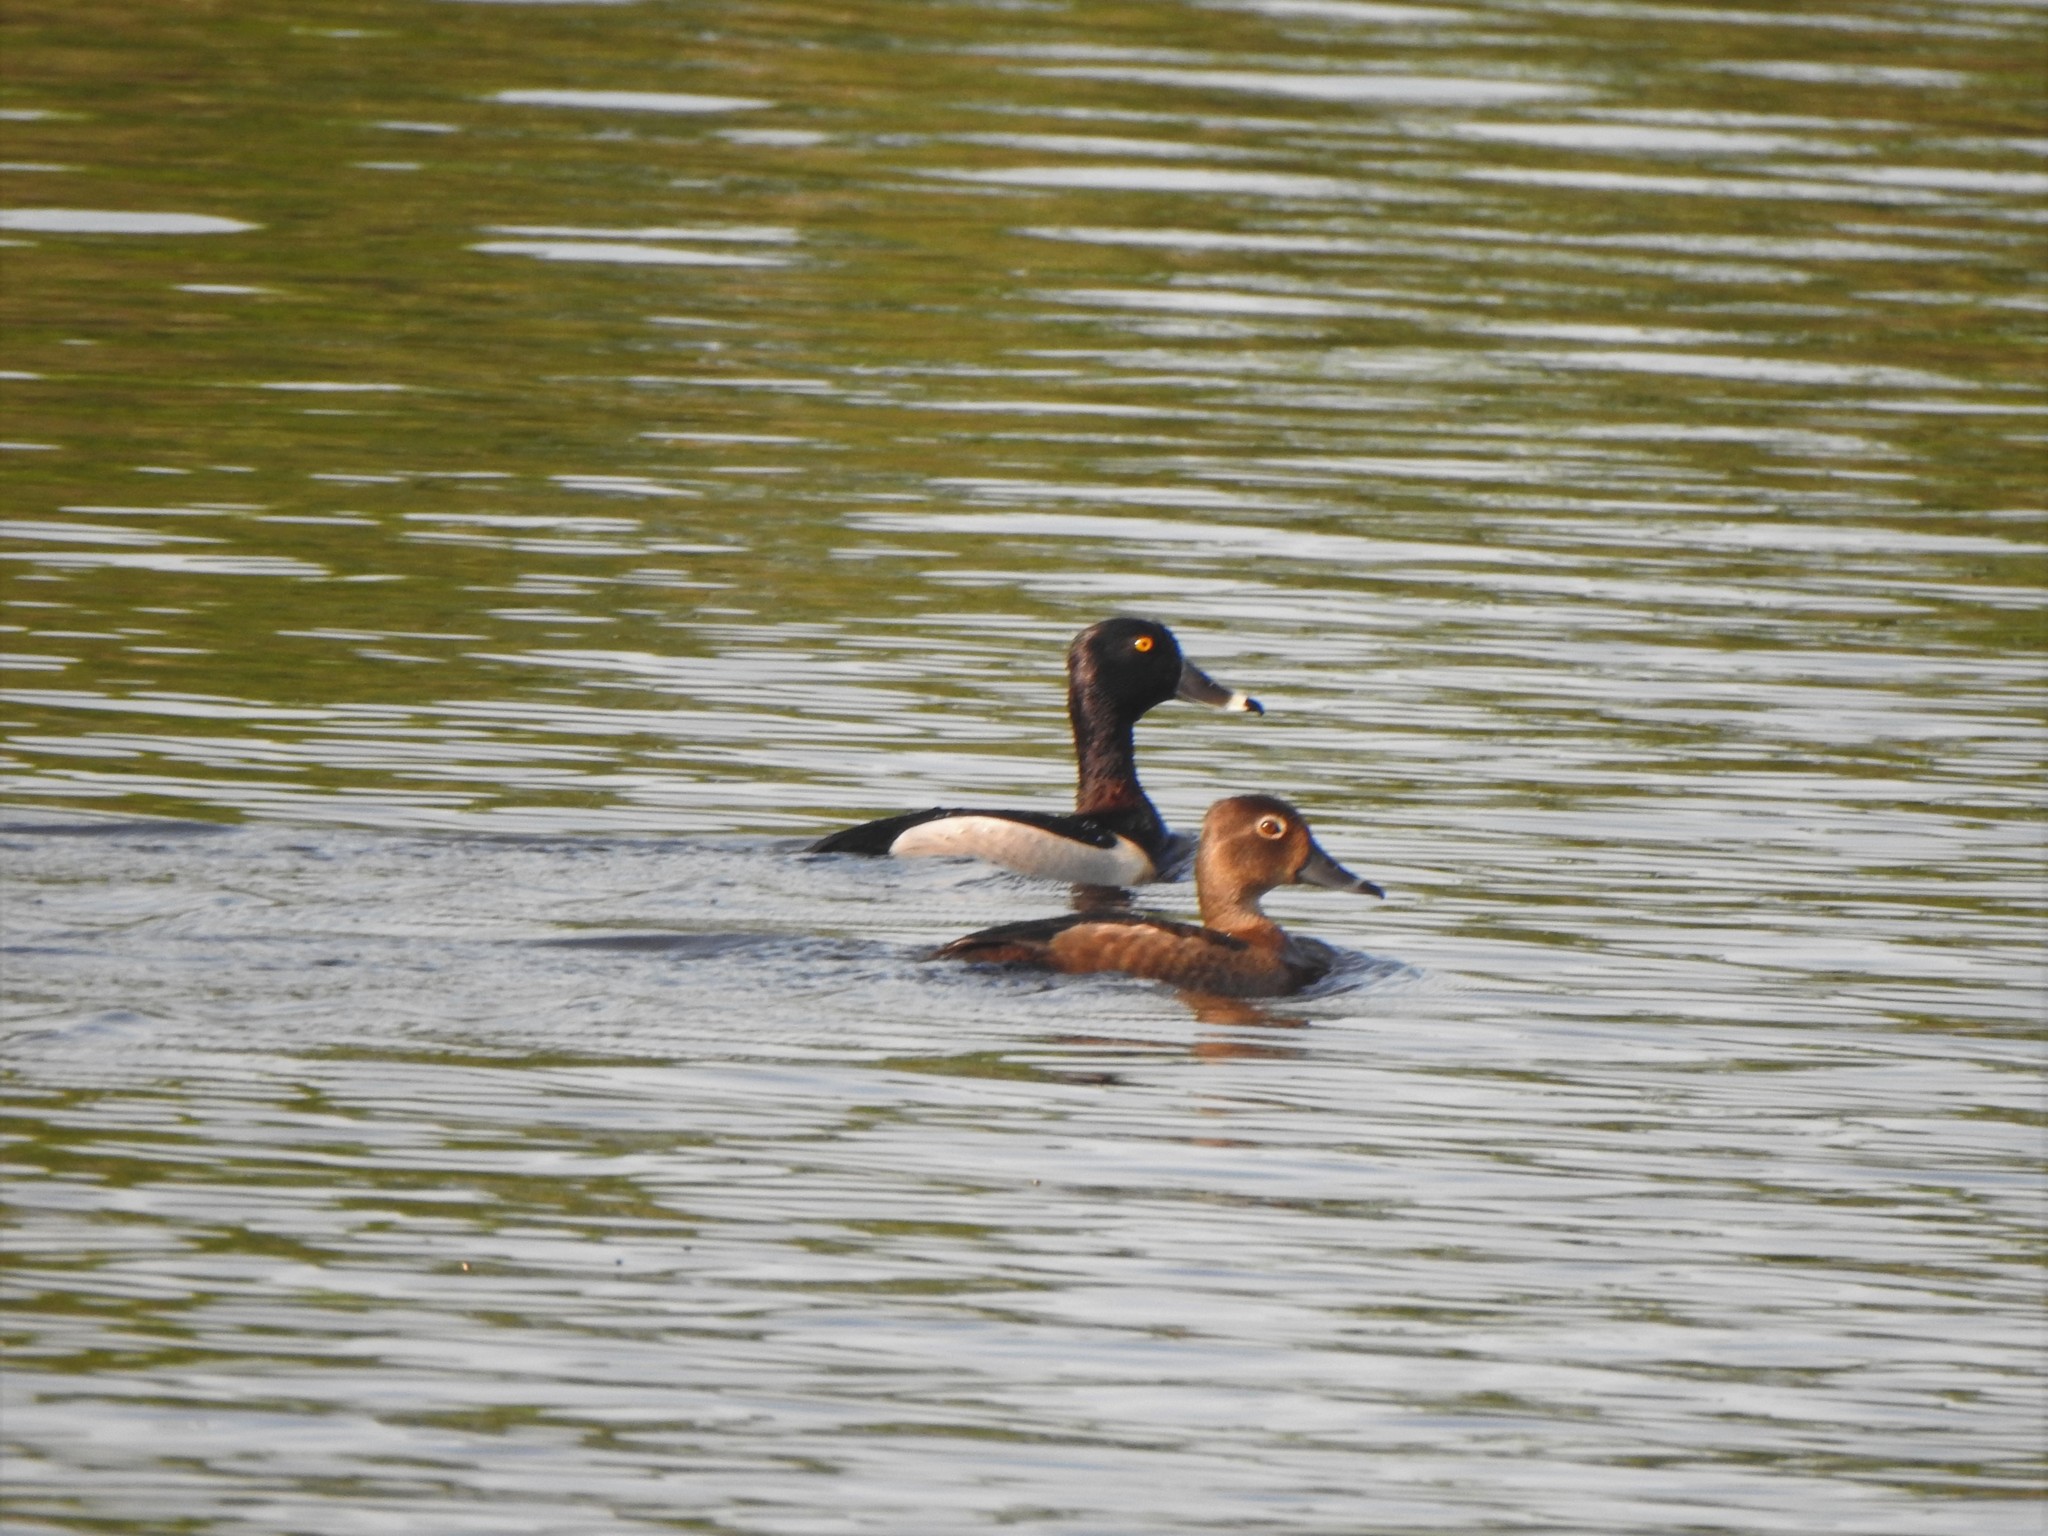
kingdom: Animalia
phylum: Chordata
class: Aves
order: Anseriformes
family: Anatidae
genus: Aythya
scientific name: Aythya collaris
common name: Ring-necked duck
